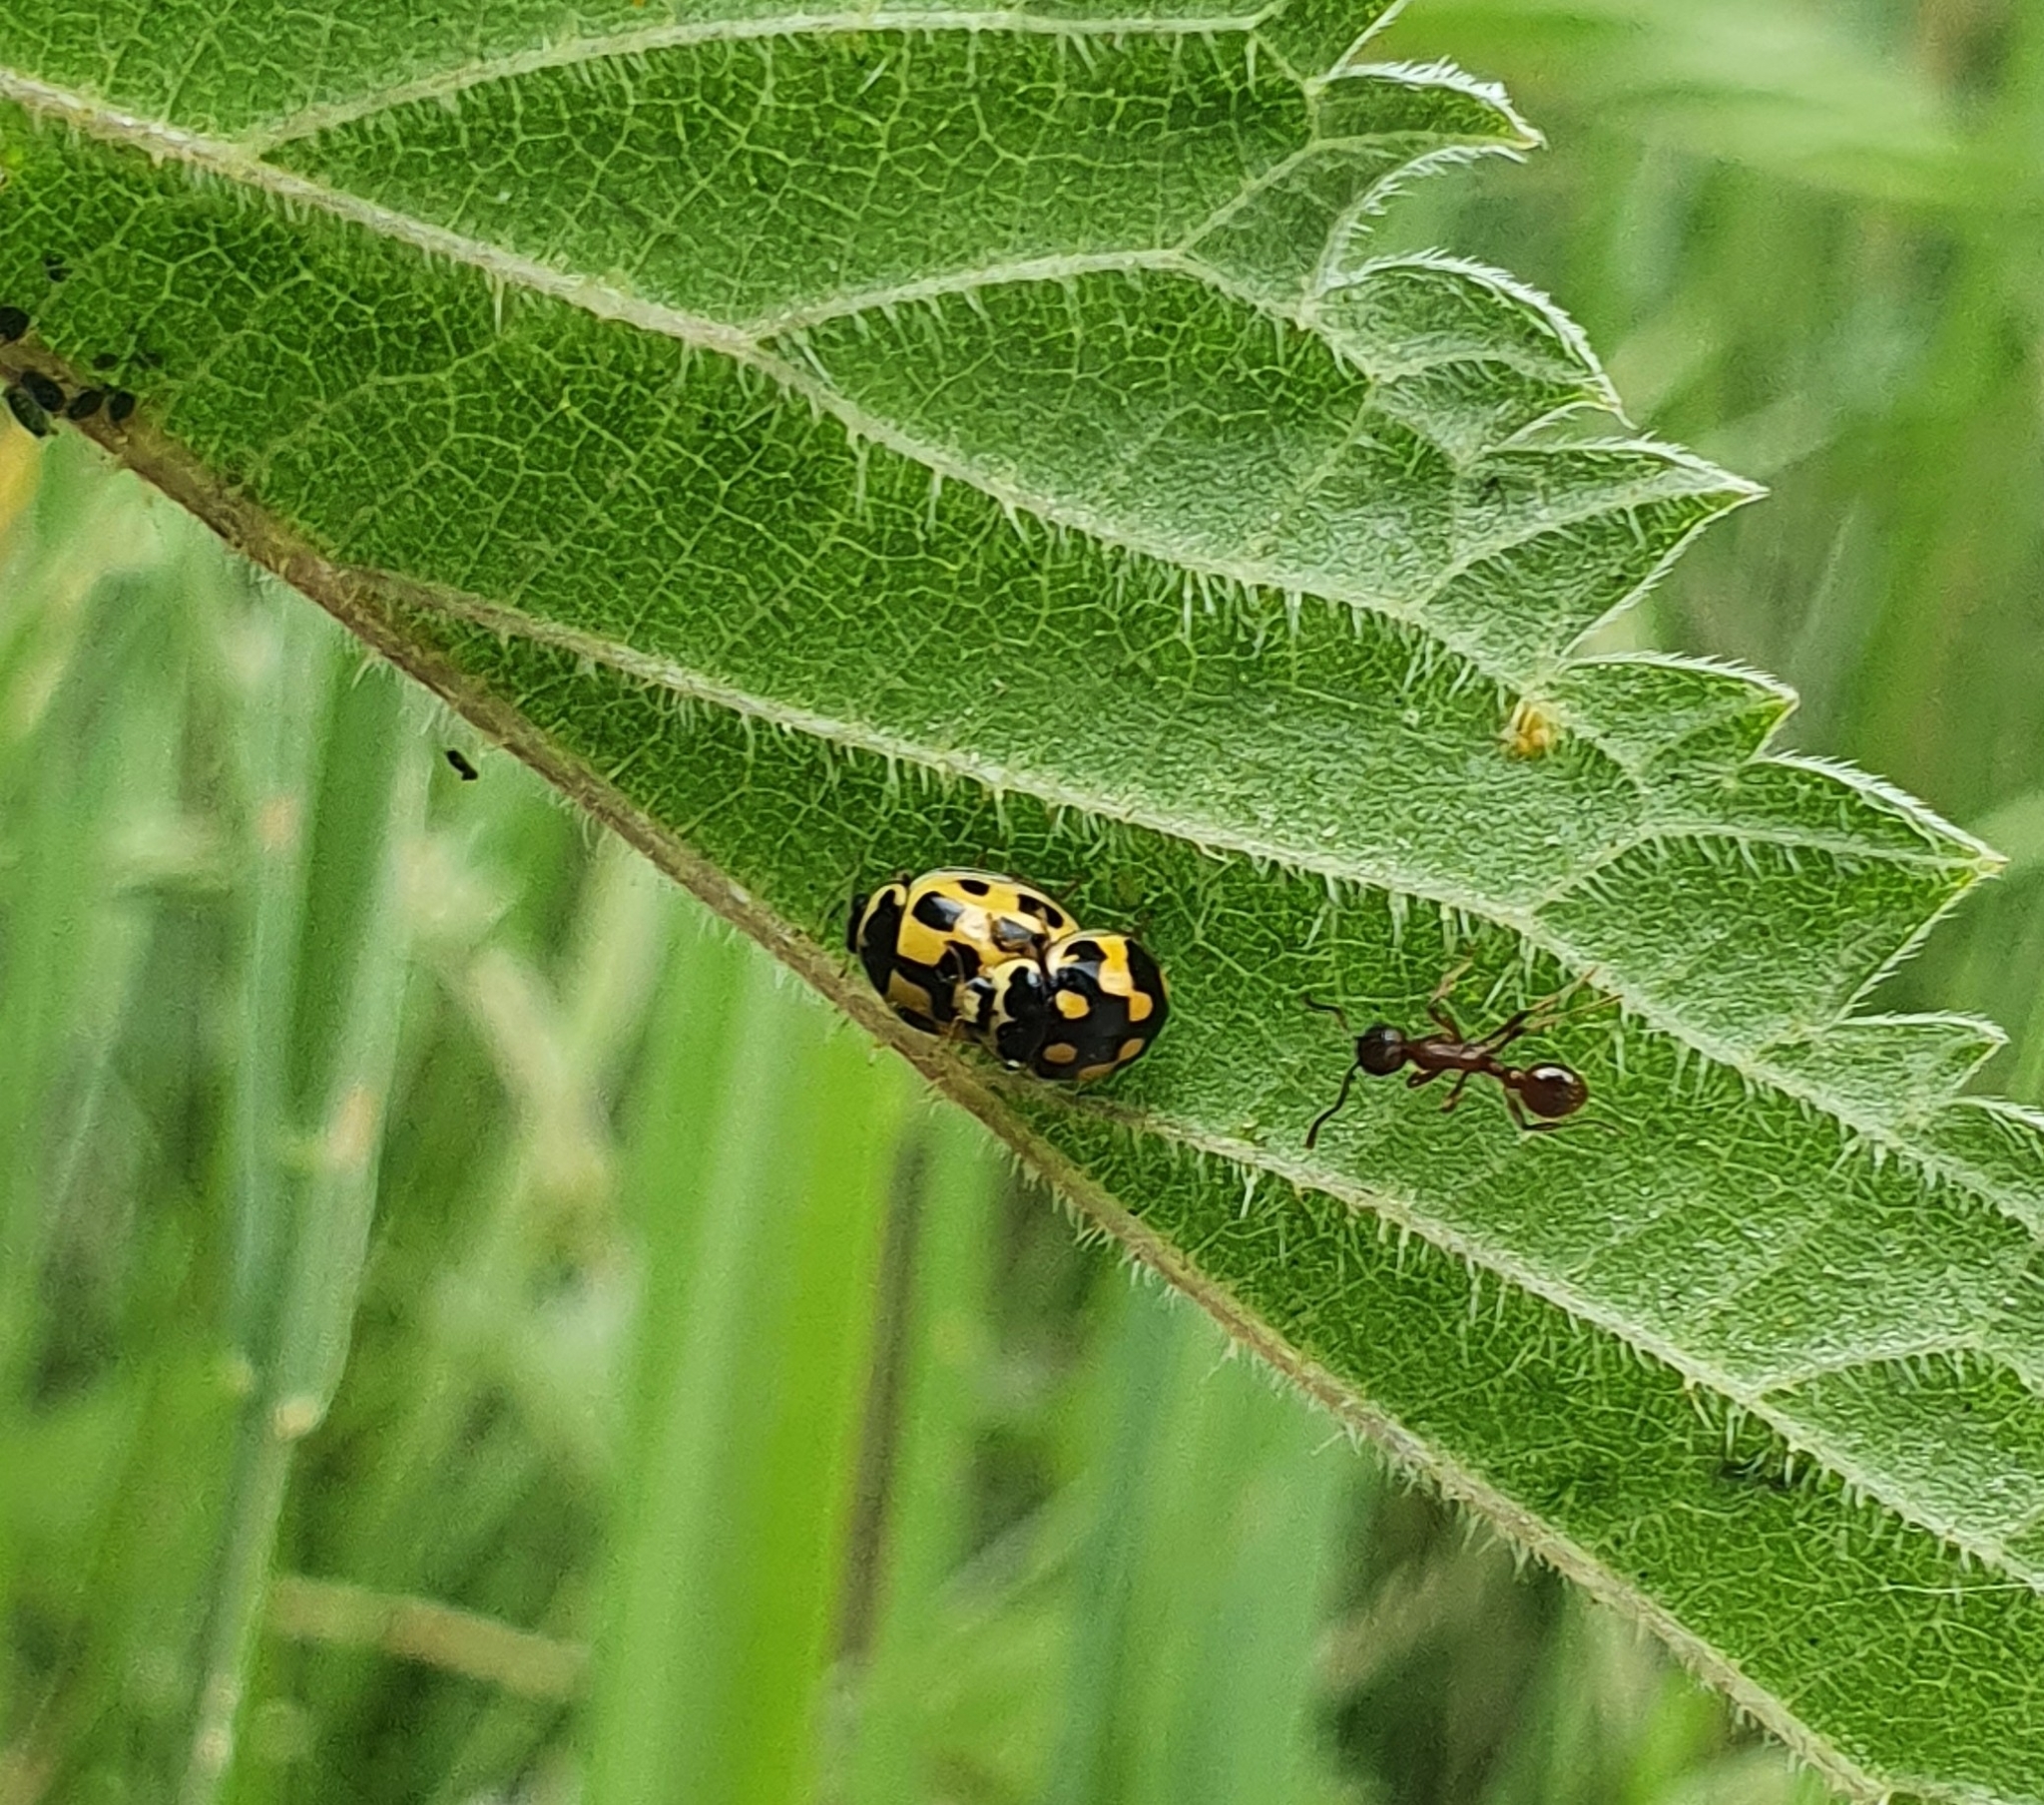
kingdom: Animalia
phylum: Arthropoda
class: Insecta
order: Coleoptera
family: Coccinellidae
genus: Propylaea
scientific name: Propylaea quatuordecimpunctata
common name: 14-spotted ladybird beetle
